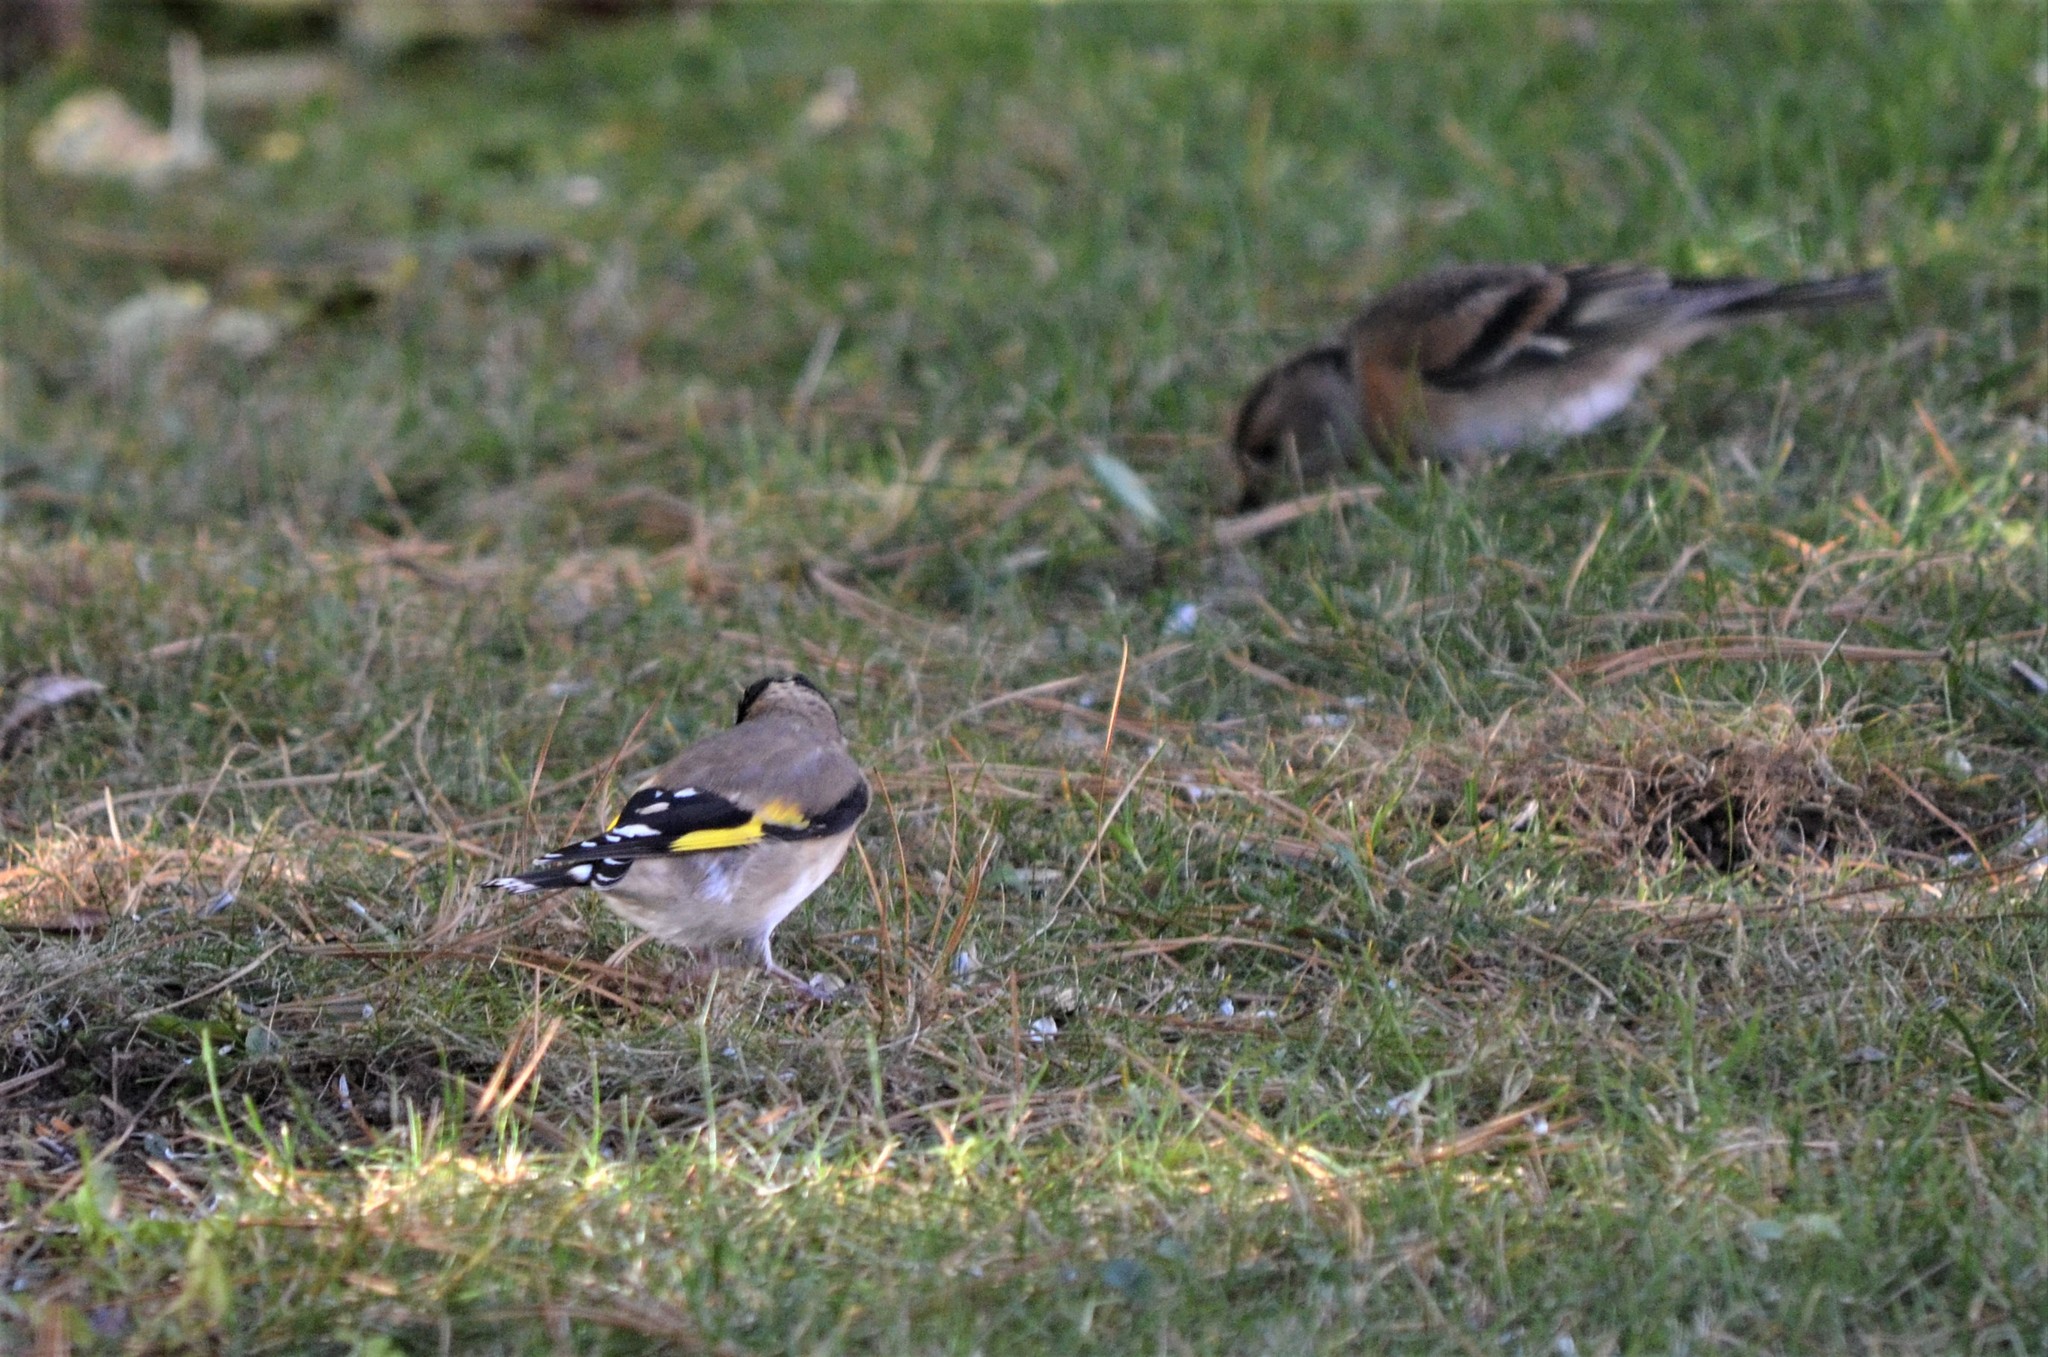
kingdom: Animalia
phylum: Chordata
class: Aves
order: Passeriformes
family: Fringillidae
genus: Carduelis
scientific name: Carduelis carduelis
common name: European goldfinch
